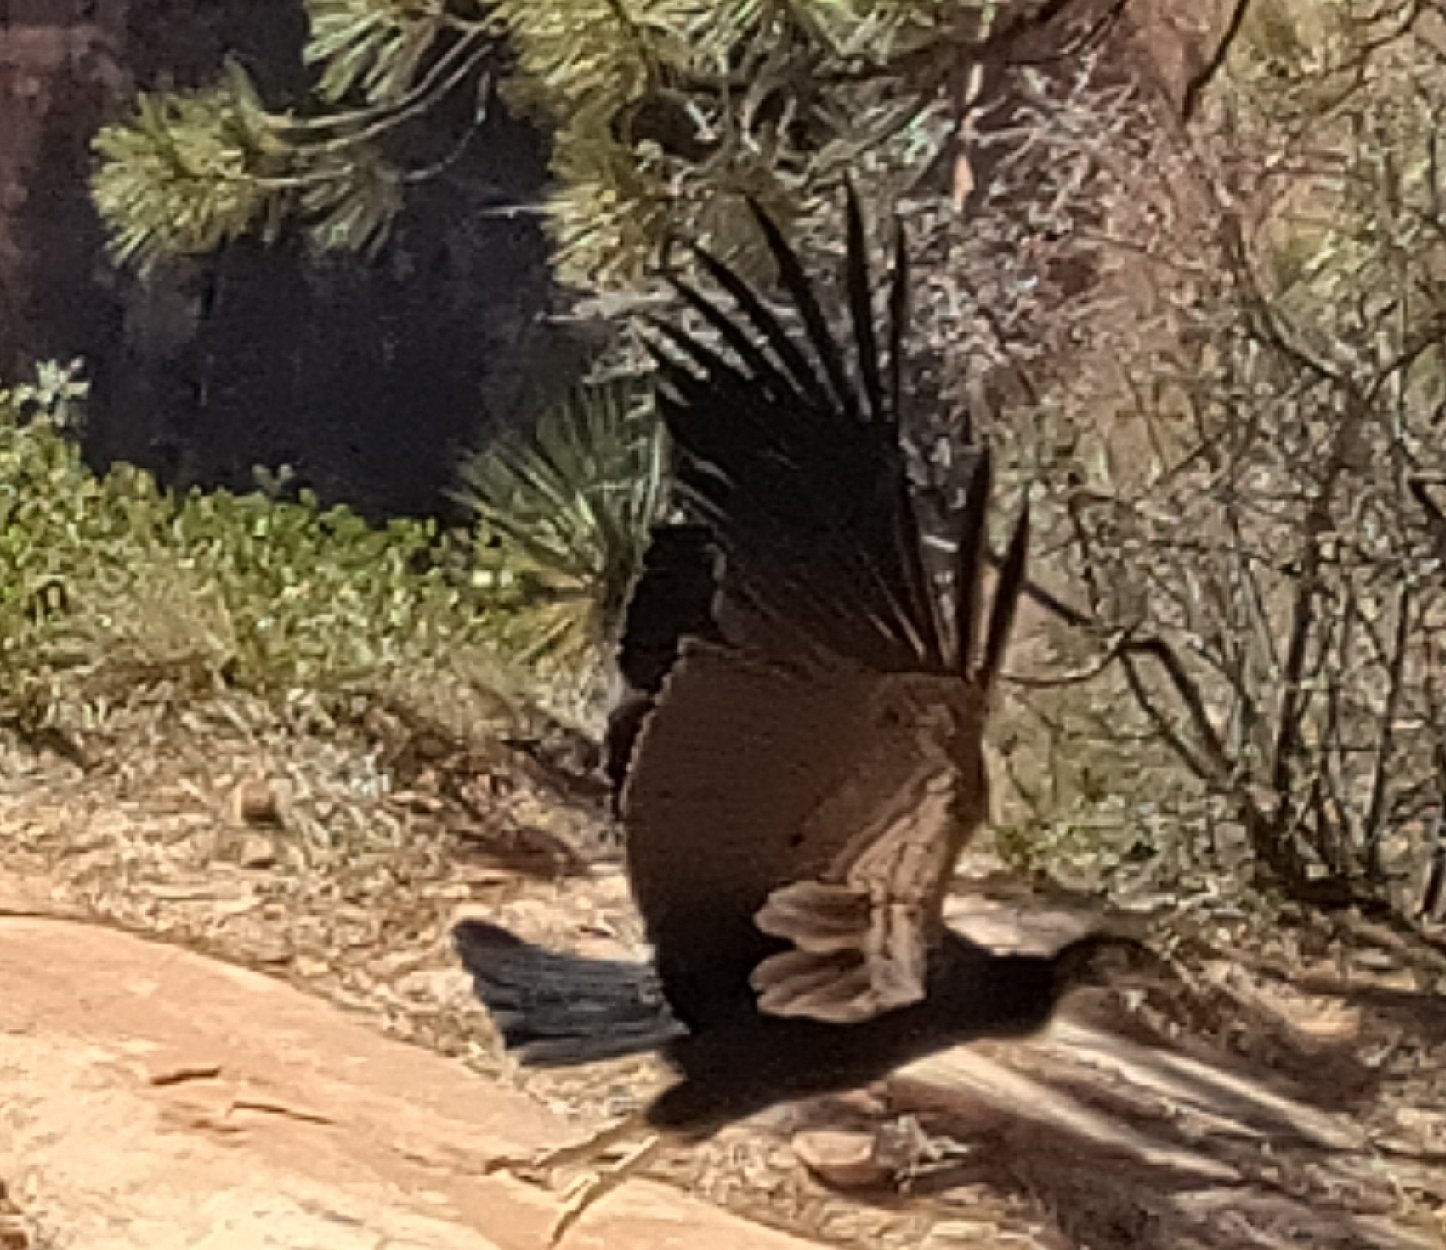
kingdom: Animalia
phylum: Chordata
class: Aves
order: Accipitriformes
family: Cathartidae
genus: Gymnogyps
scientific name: Gymnogyps californianus
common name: California condor
